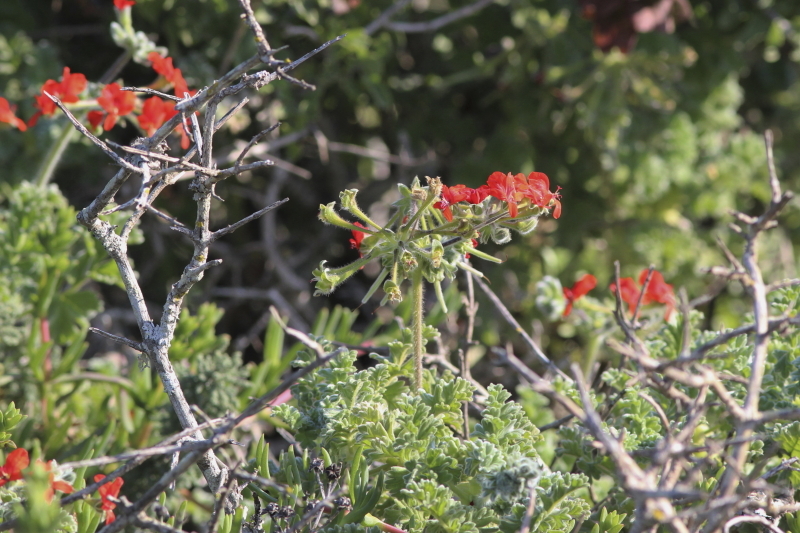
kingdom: Plantae
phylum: Tracheophyta
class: Magnoliopsida
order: Geraniales
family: Geraniaceae
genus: Pelargonium
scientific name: Pelargonium fulgidum
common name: Celandine-leaf pelargonium
